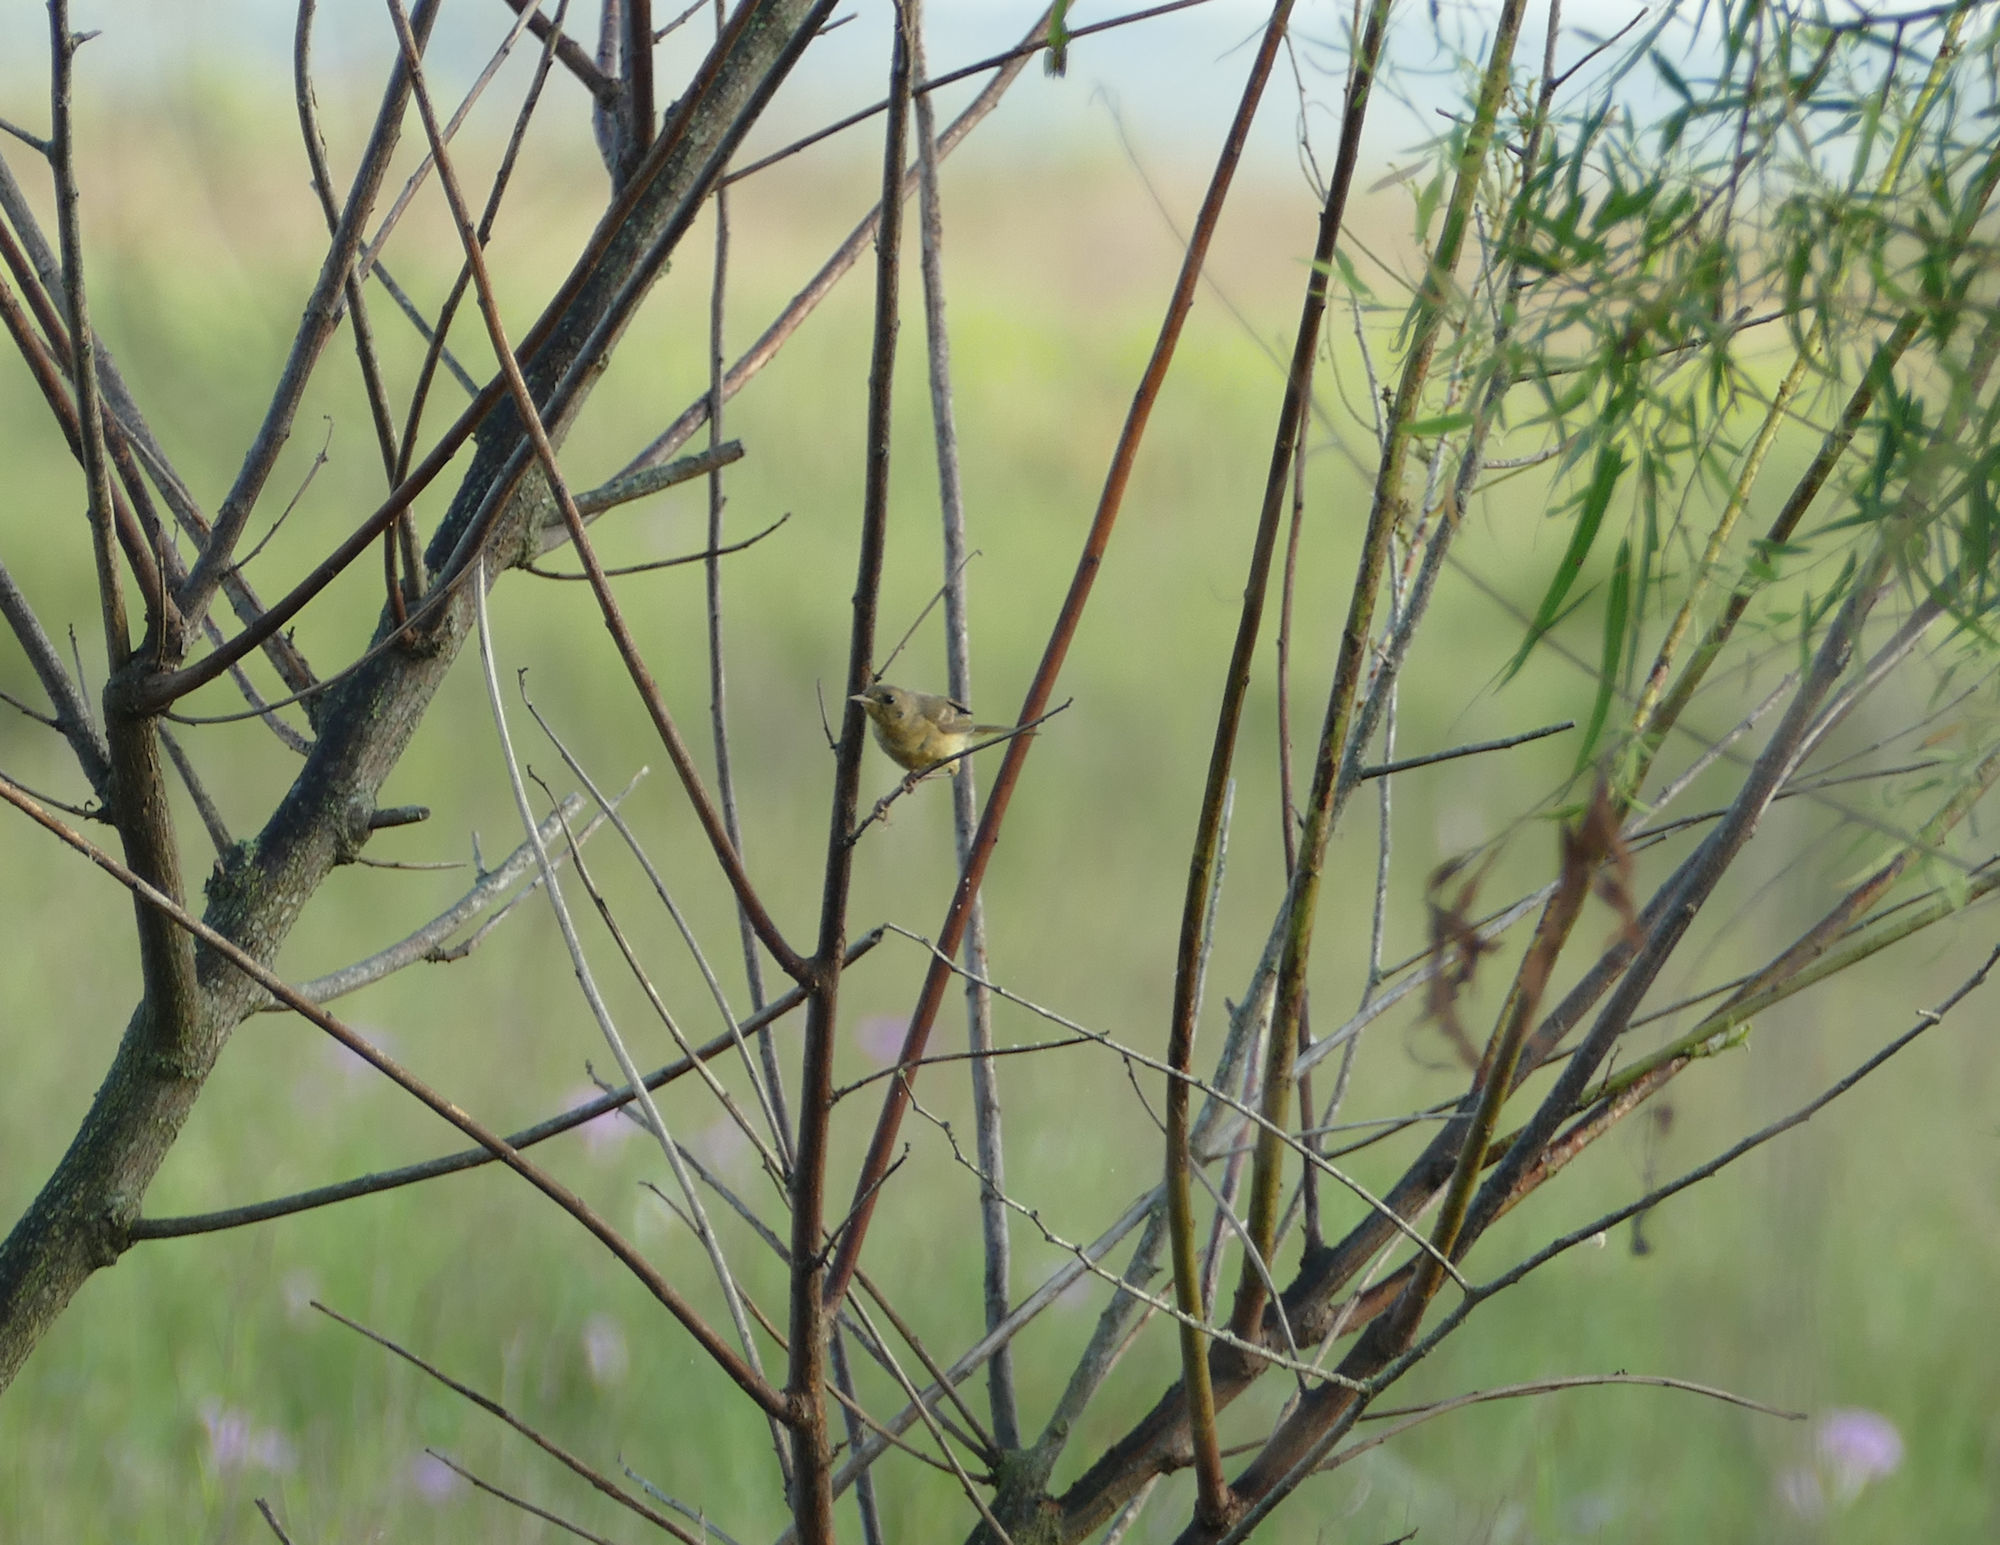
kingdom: Plantae
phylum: Tracheophyta
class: Magnoliopsida
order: Malpighiales
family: Salicaceae
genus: Salix
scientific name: Salix nigra
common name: Black willow
